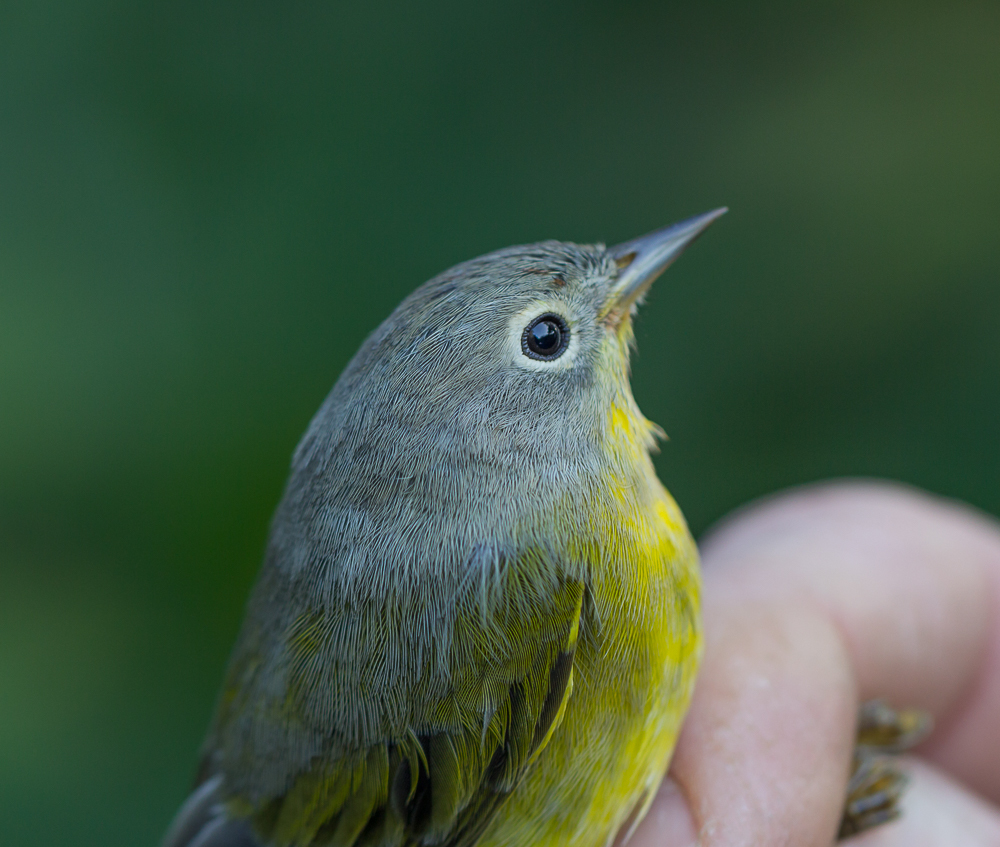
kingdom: Animalia
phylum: Chordata
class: Aves
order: Passeriformes
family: Parulidae
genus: Leiothlypis
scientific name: Leiothlypis ruficapilla
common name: Nashville warbler
